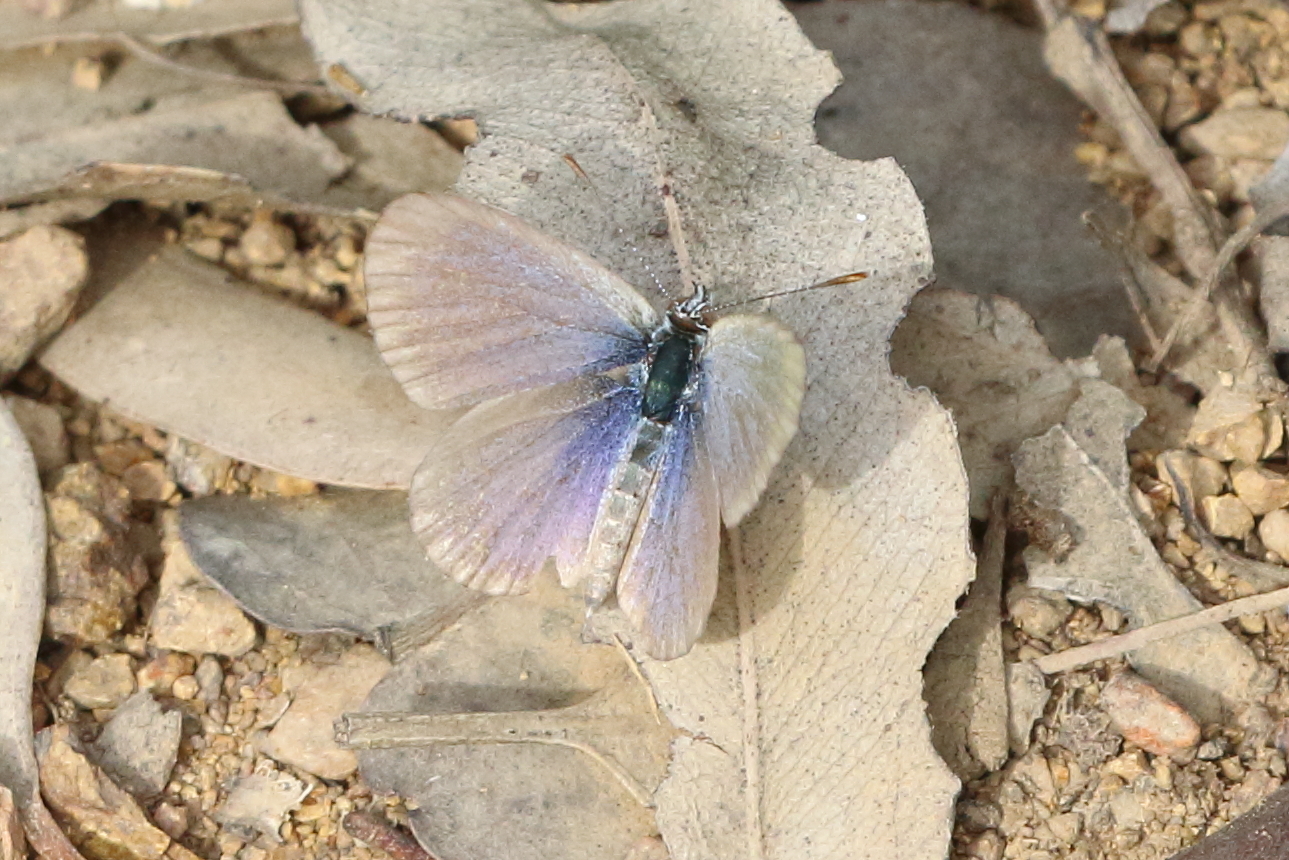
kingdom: Animalia
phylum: Arthropoda
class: Insecta
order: Lepidoptera
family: Lycaenidae
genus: Candalides
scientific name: Candalides
